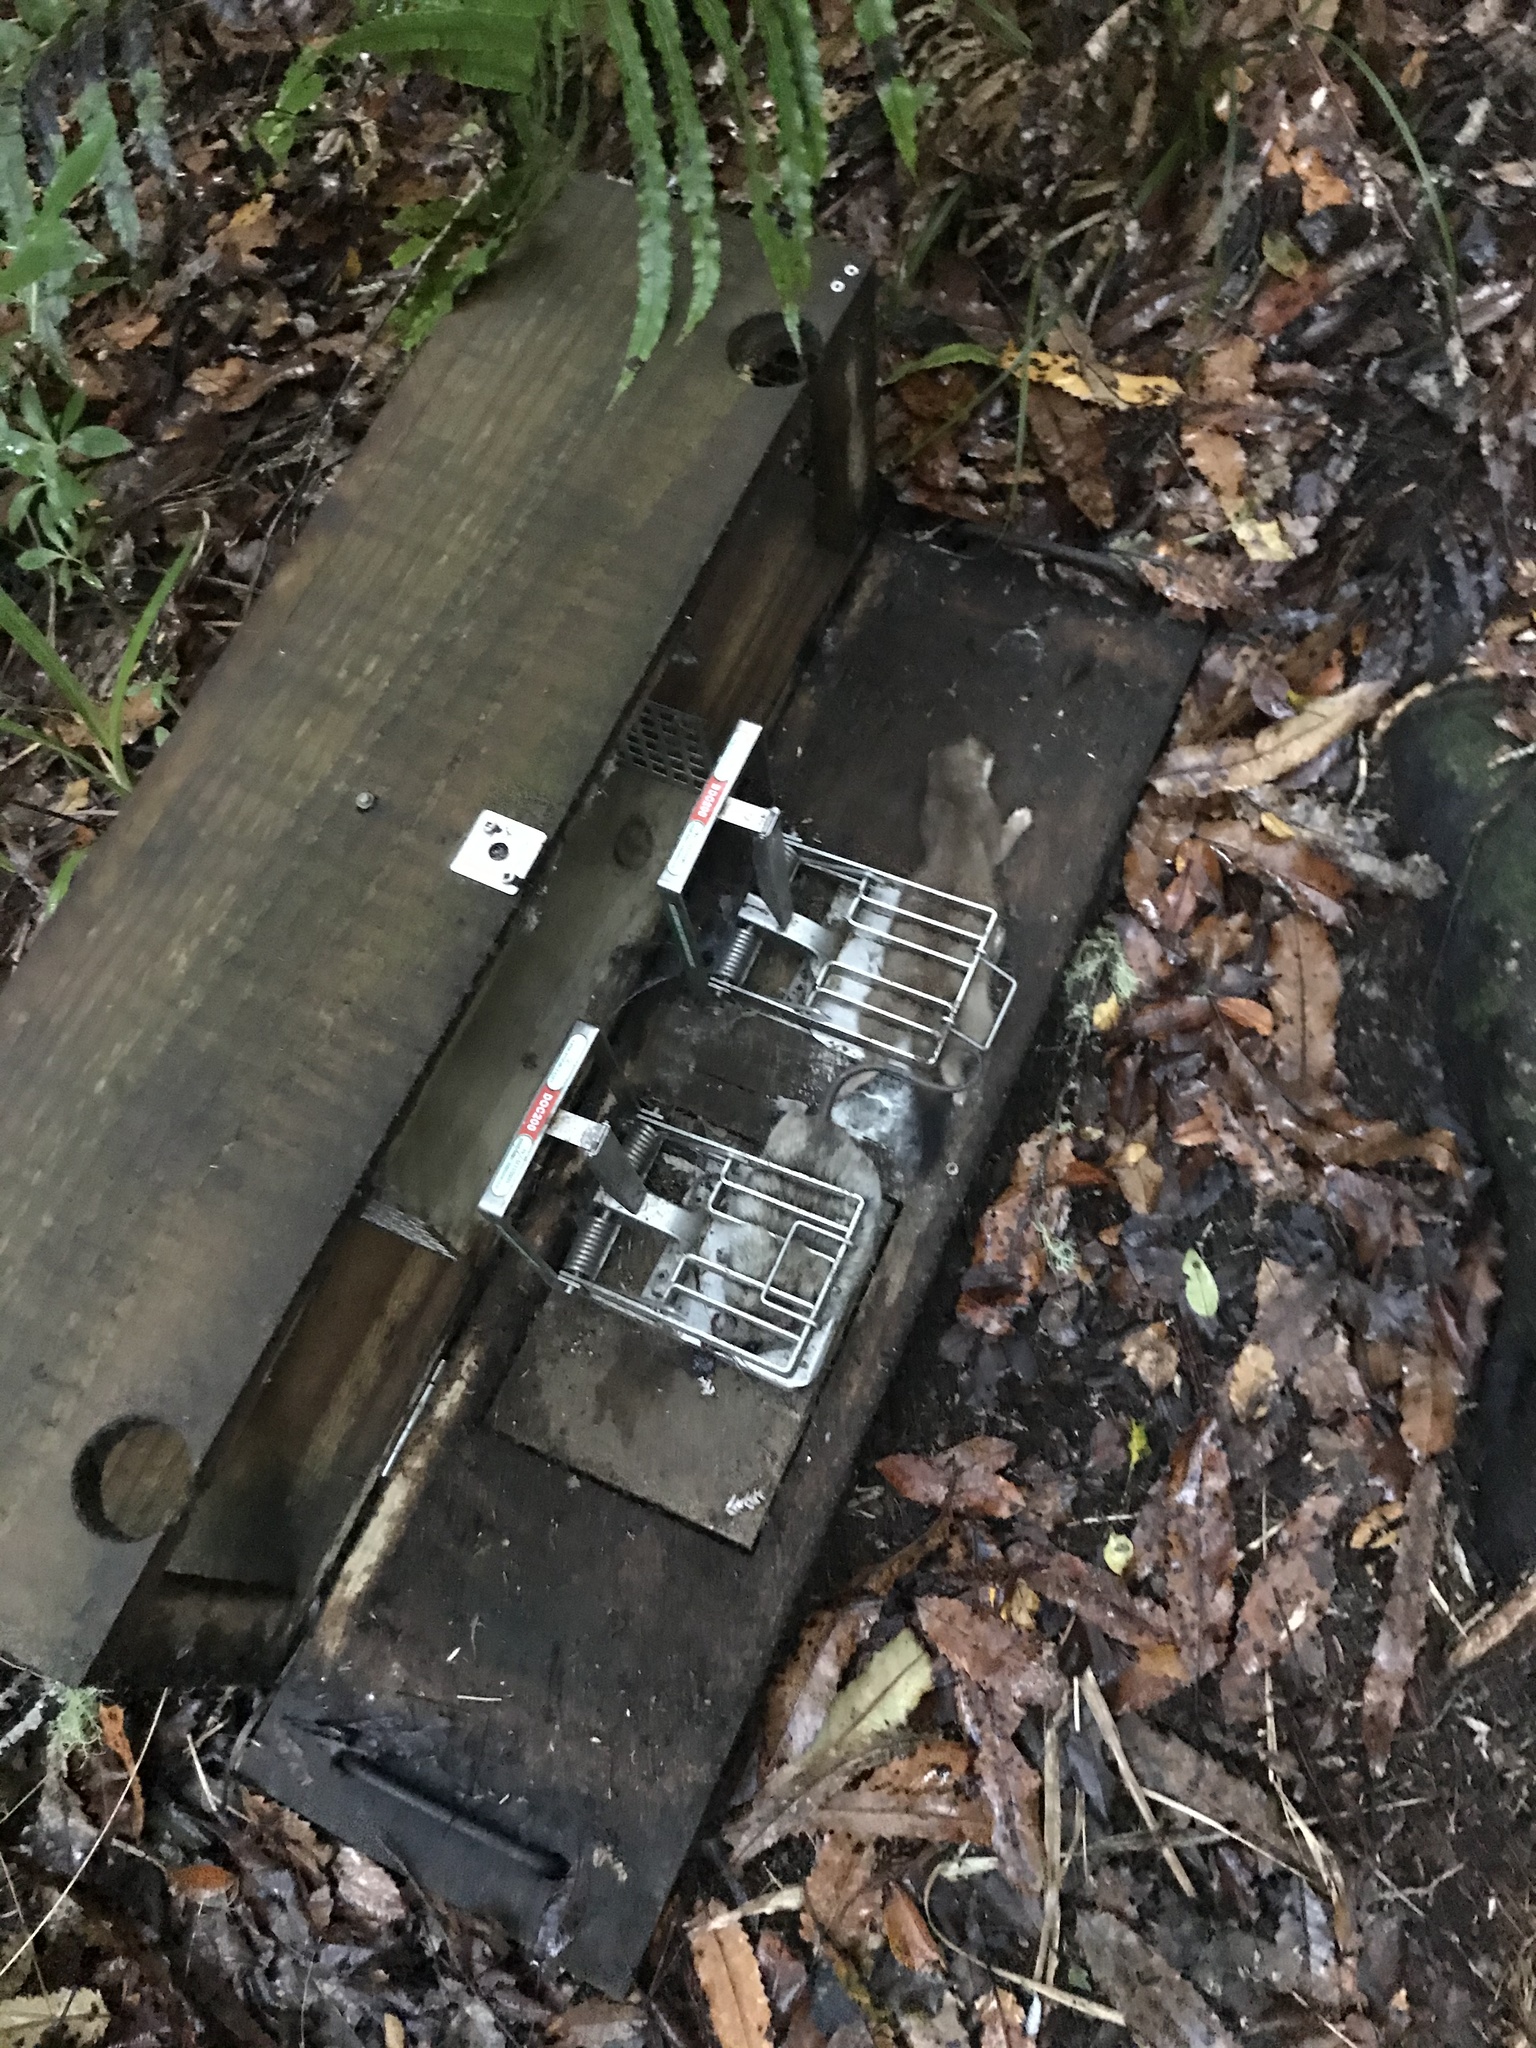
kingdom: Animalia
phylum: Chordata
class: Mammalia
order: Carnivora
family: Mustelidae
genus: Mustela
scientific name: Mustela erminea
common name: Stoat
